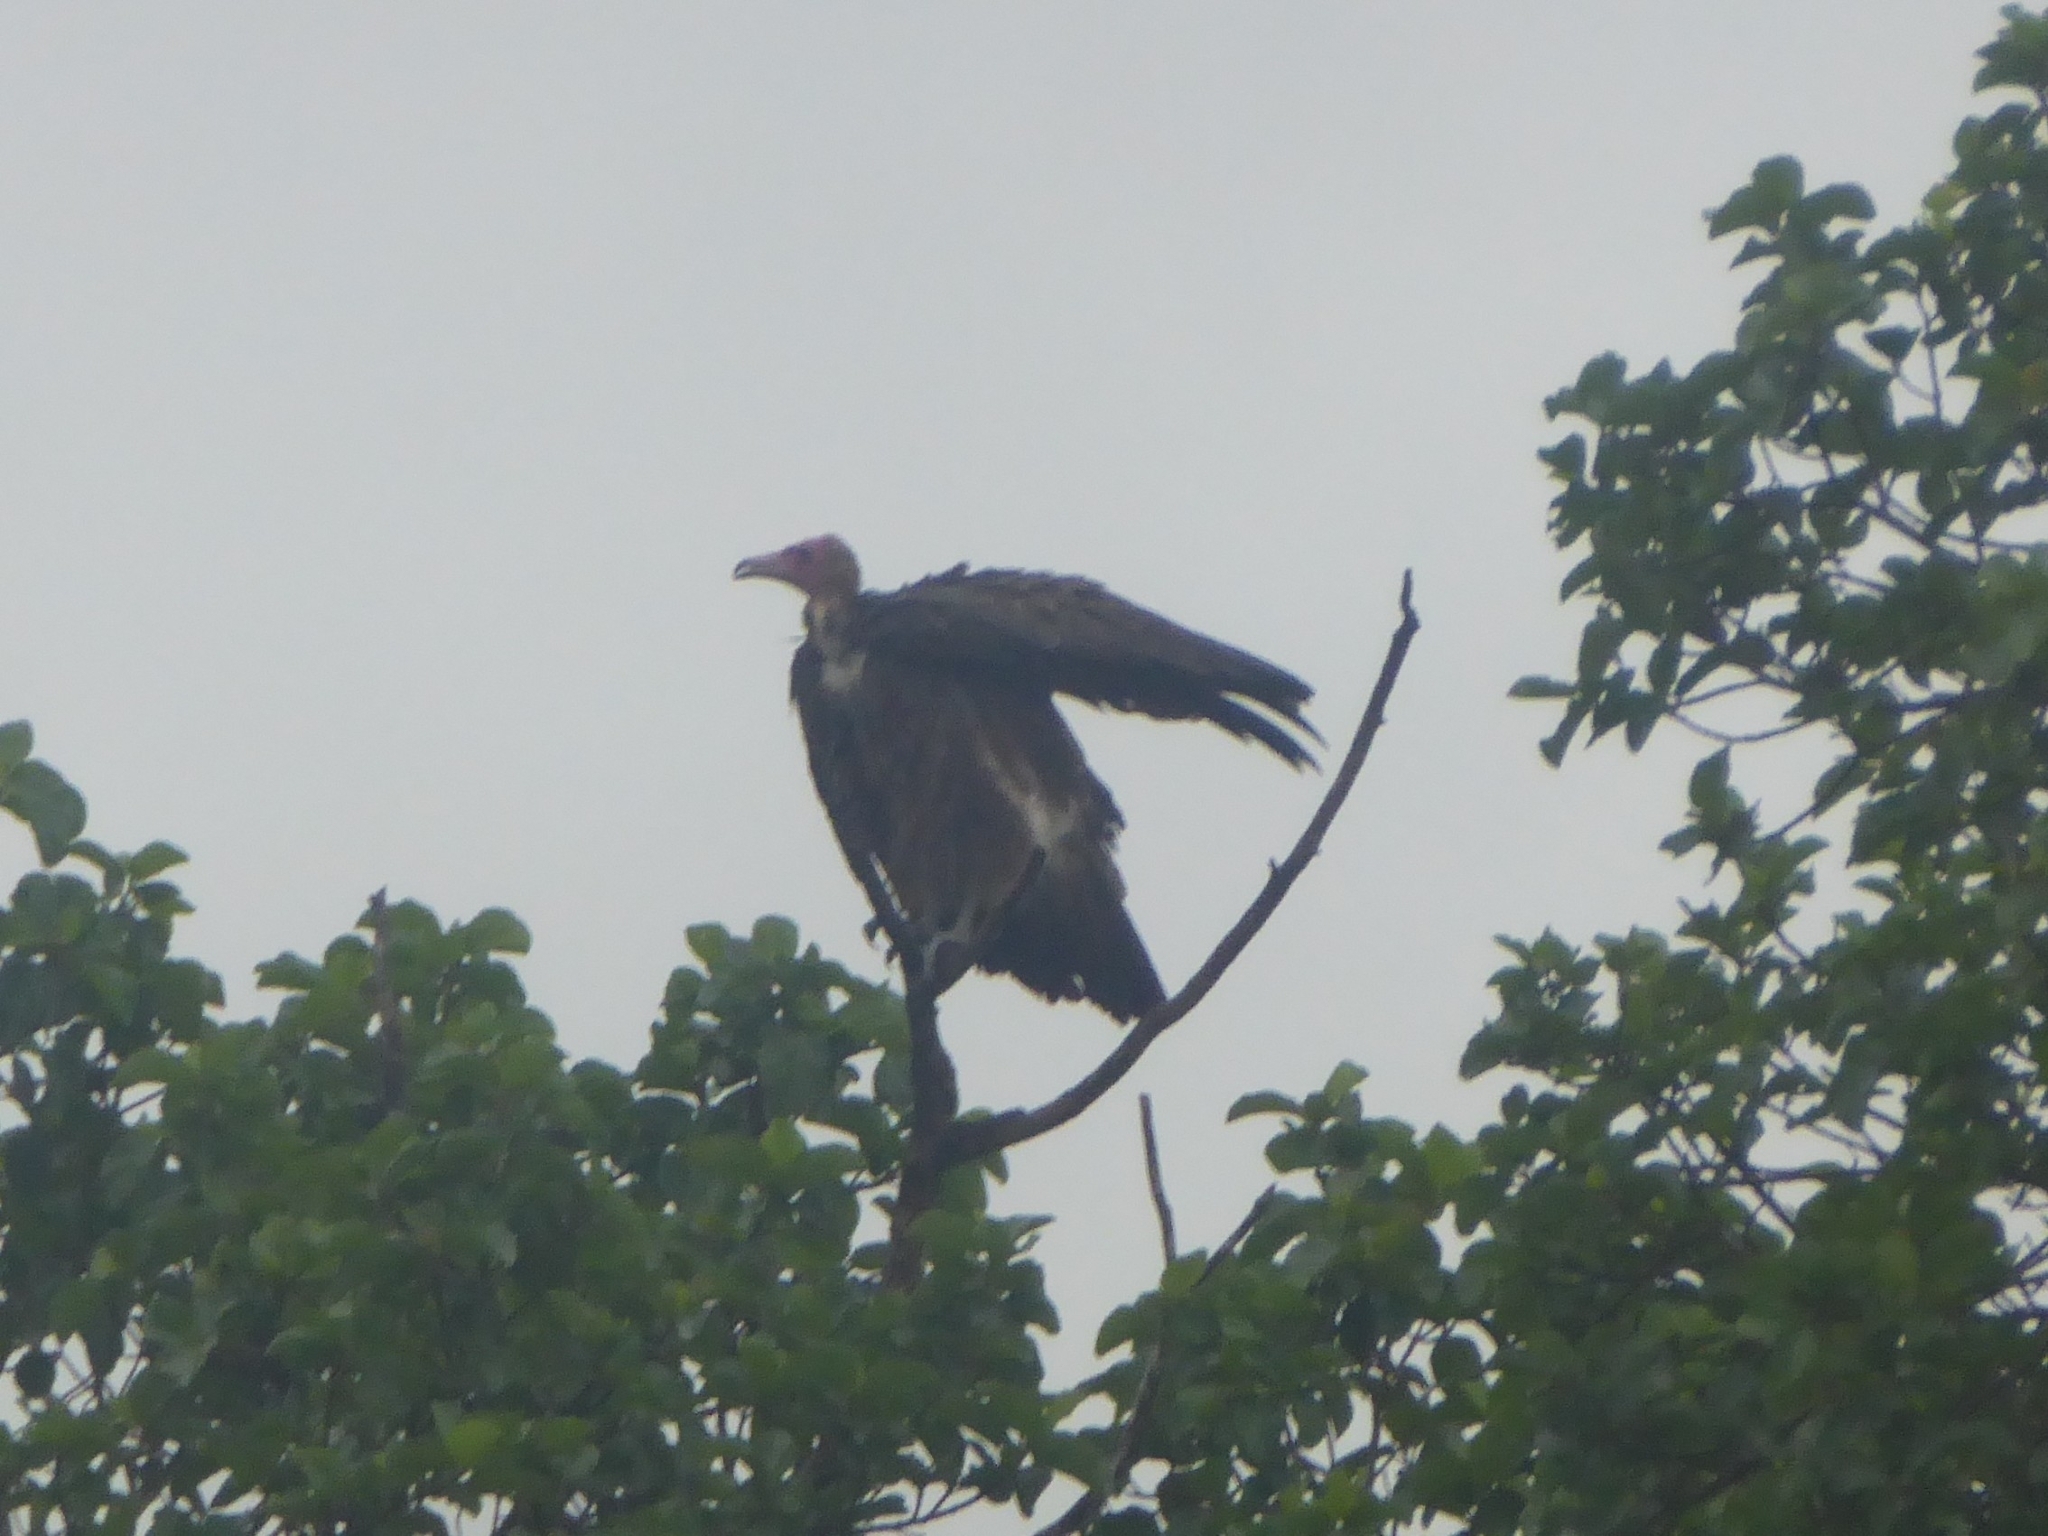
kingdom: Animalia
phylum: Chordata
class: Aves
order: Accipitriformes
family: Accipitridae
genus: Necrosyrtes
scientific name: Necrosyrtes monachus
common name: Hooded vulture
